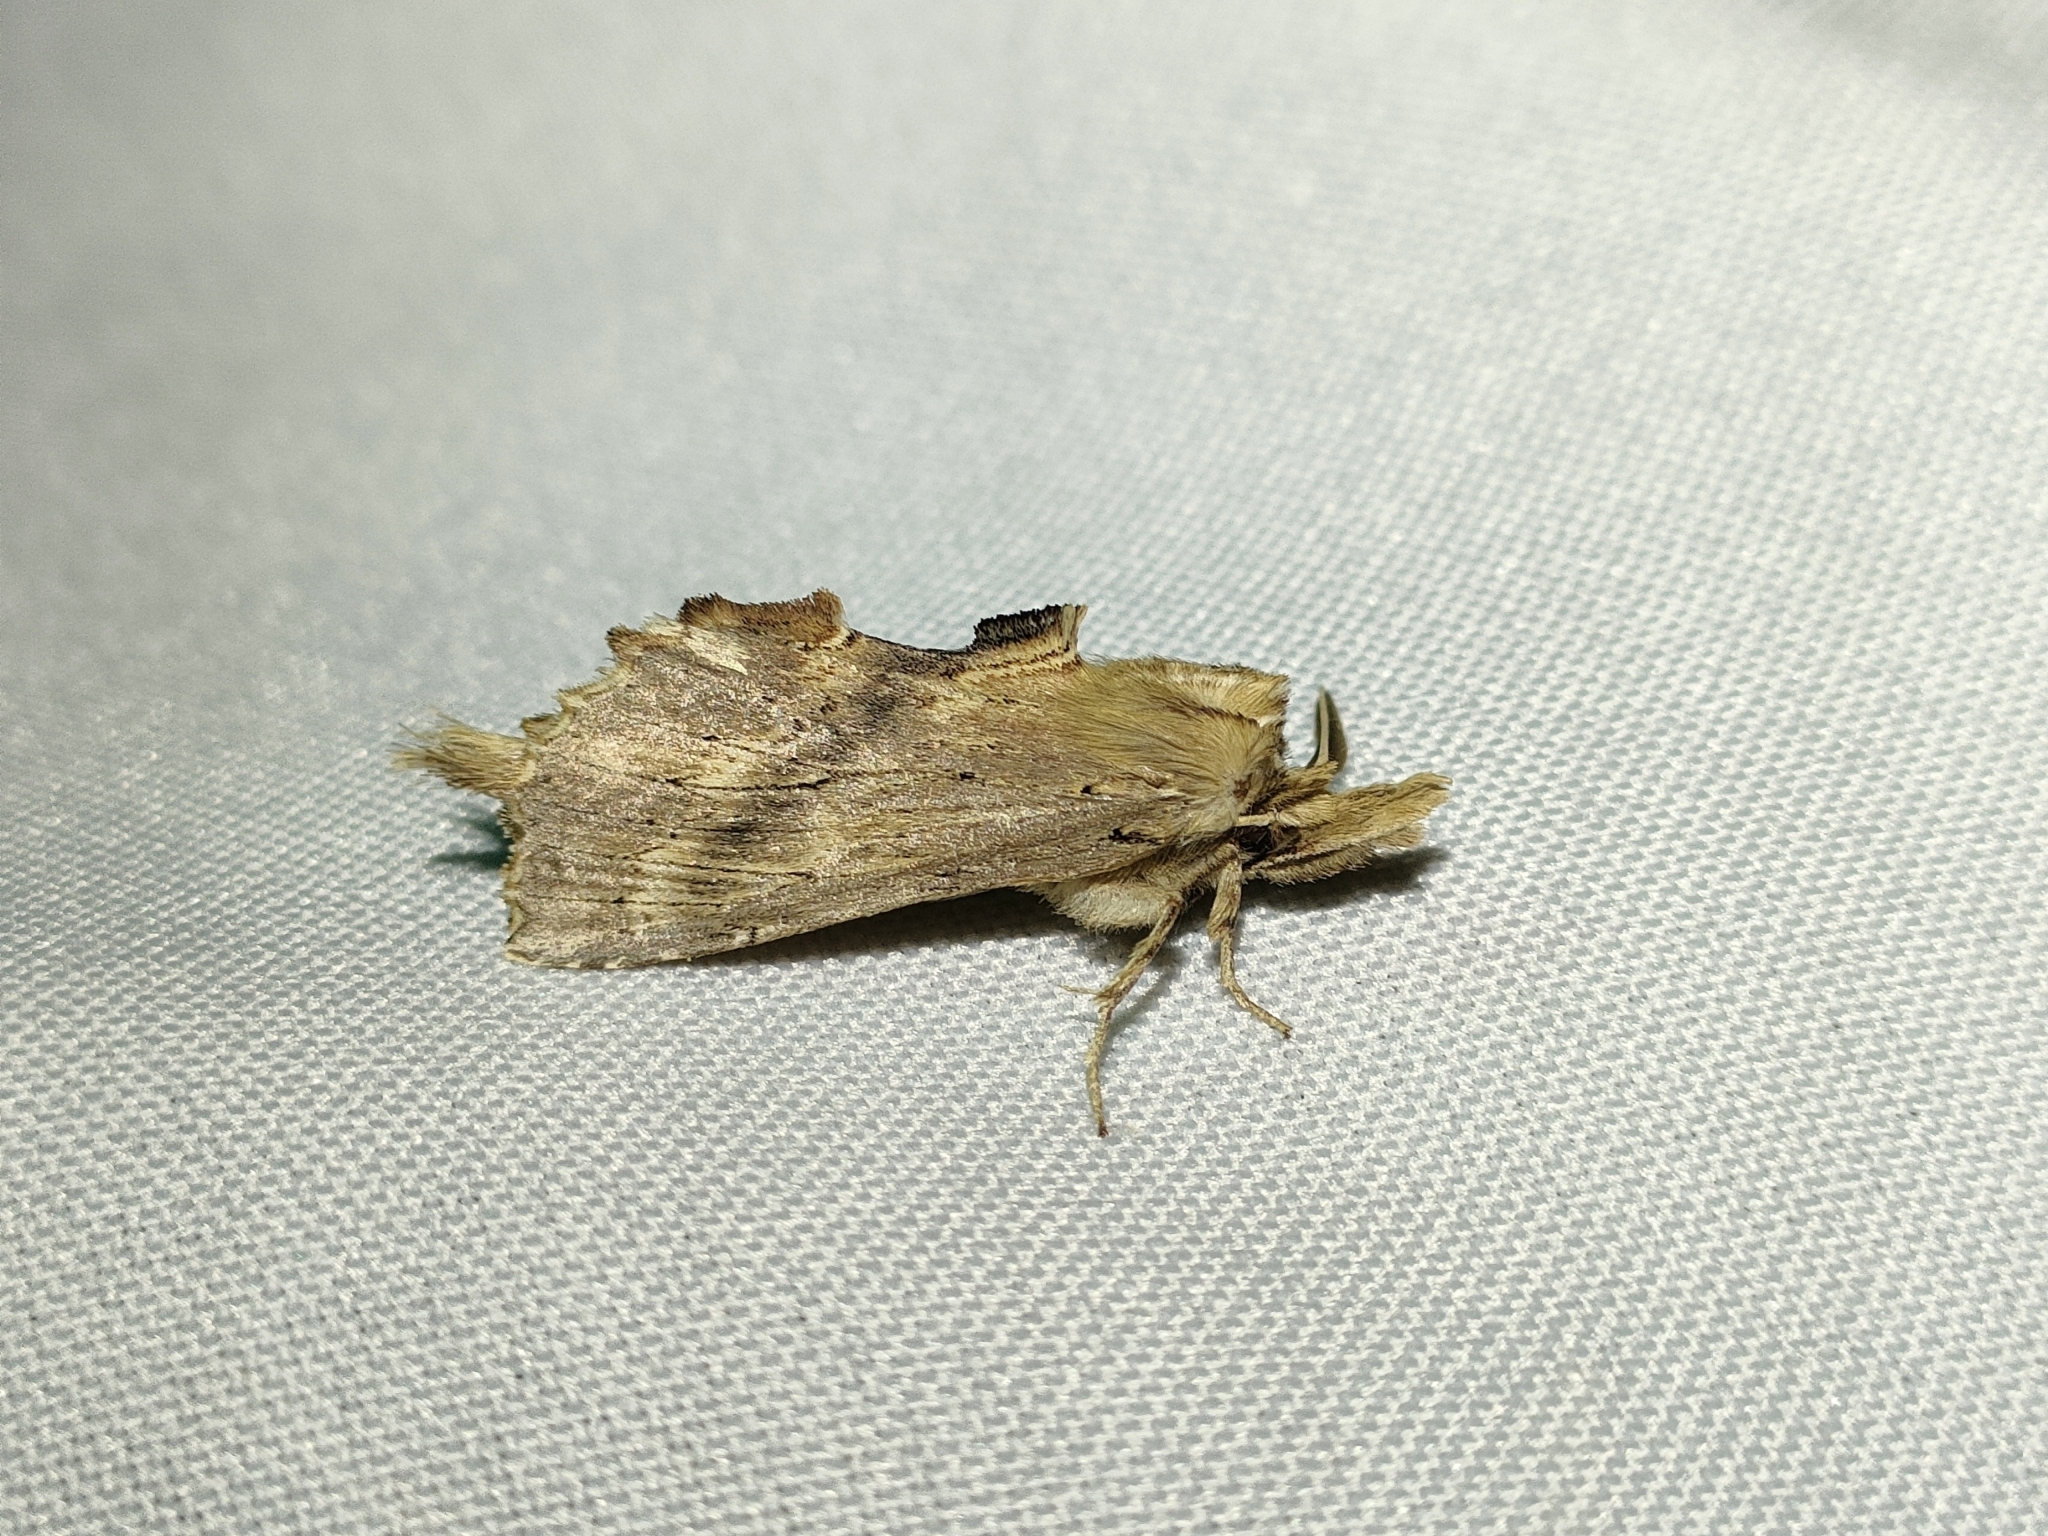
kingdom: Animalia
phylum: Arthropoda
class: Insecta
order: Lepidoptera
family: Notodontidae
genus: Pterostoma
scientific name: Pterostoma palpina
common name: Pale prominent
